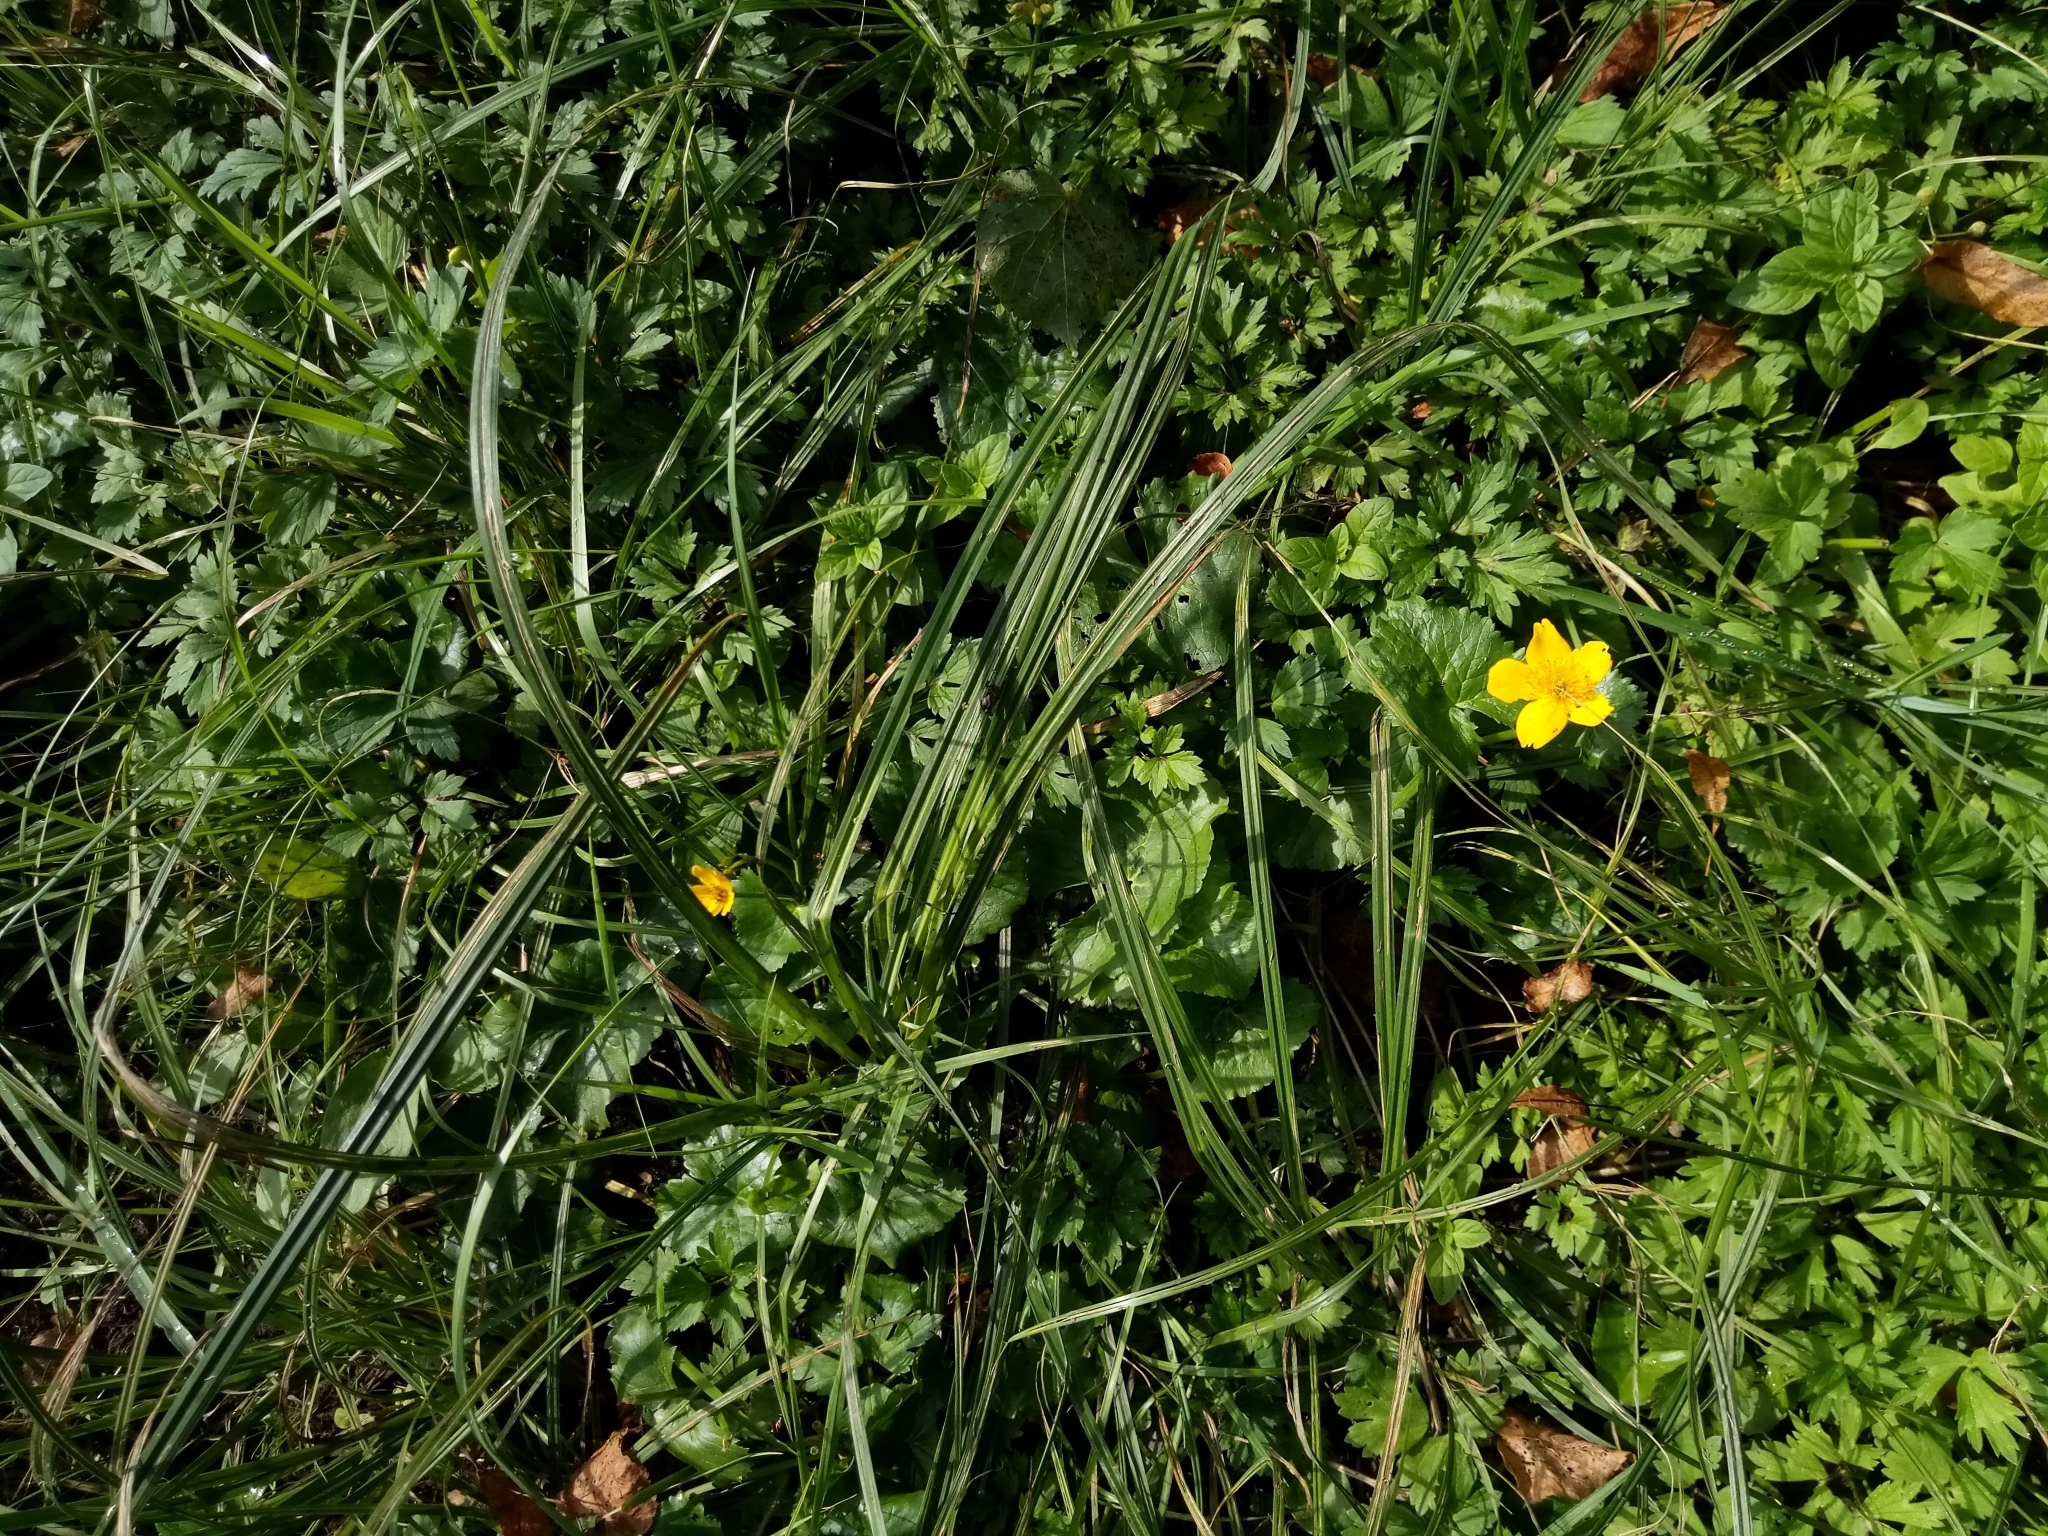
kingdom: Plantae
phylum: Tracheophyta
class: Magnoliopsida
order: Ranunculales
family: Ranunculaceae
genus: Caltha
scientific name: Caltha palustris
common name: Marsh marigold
